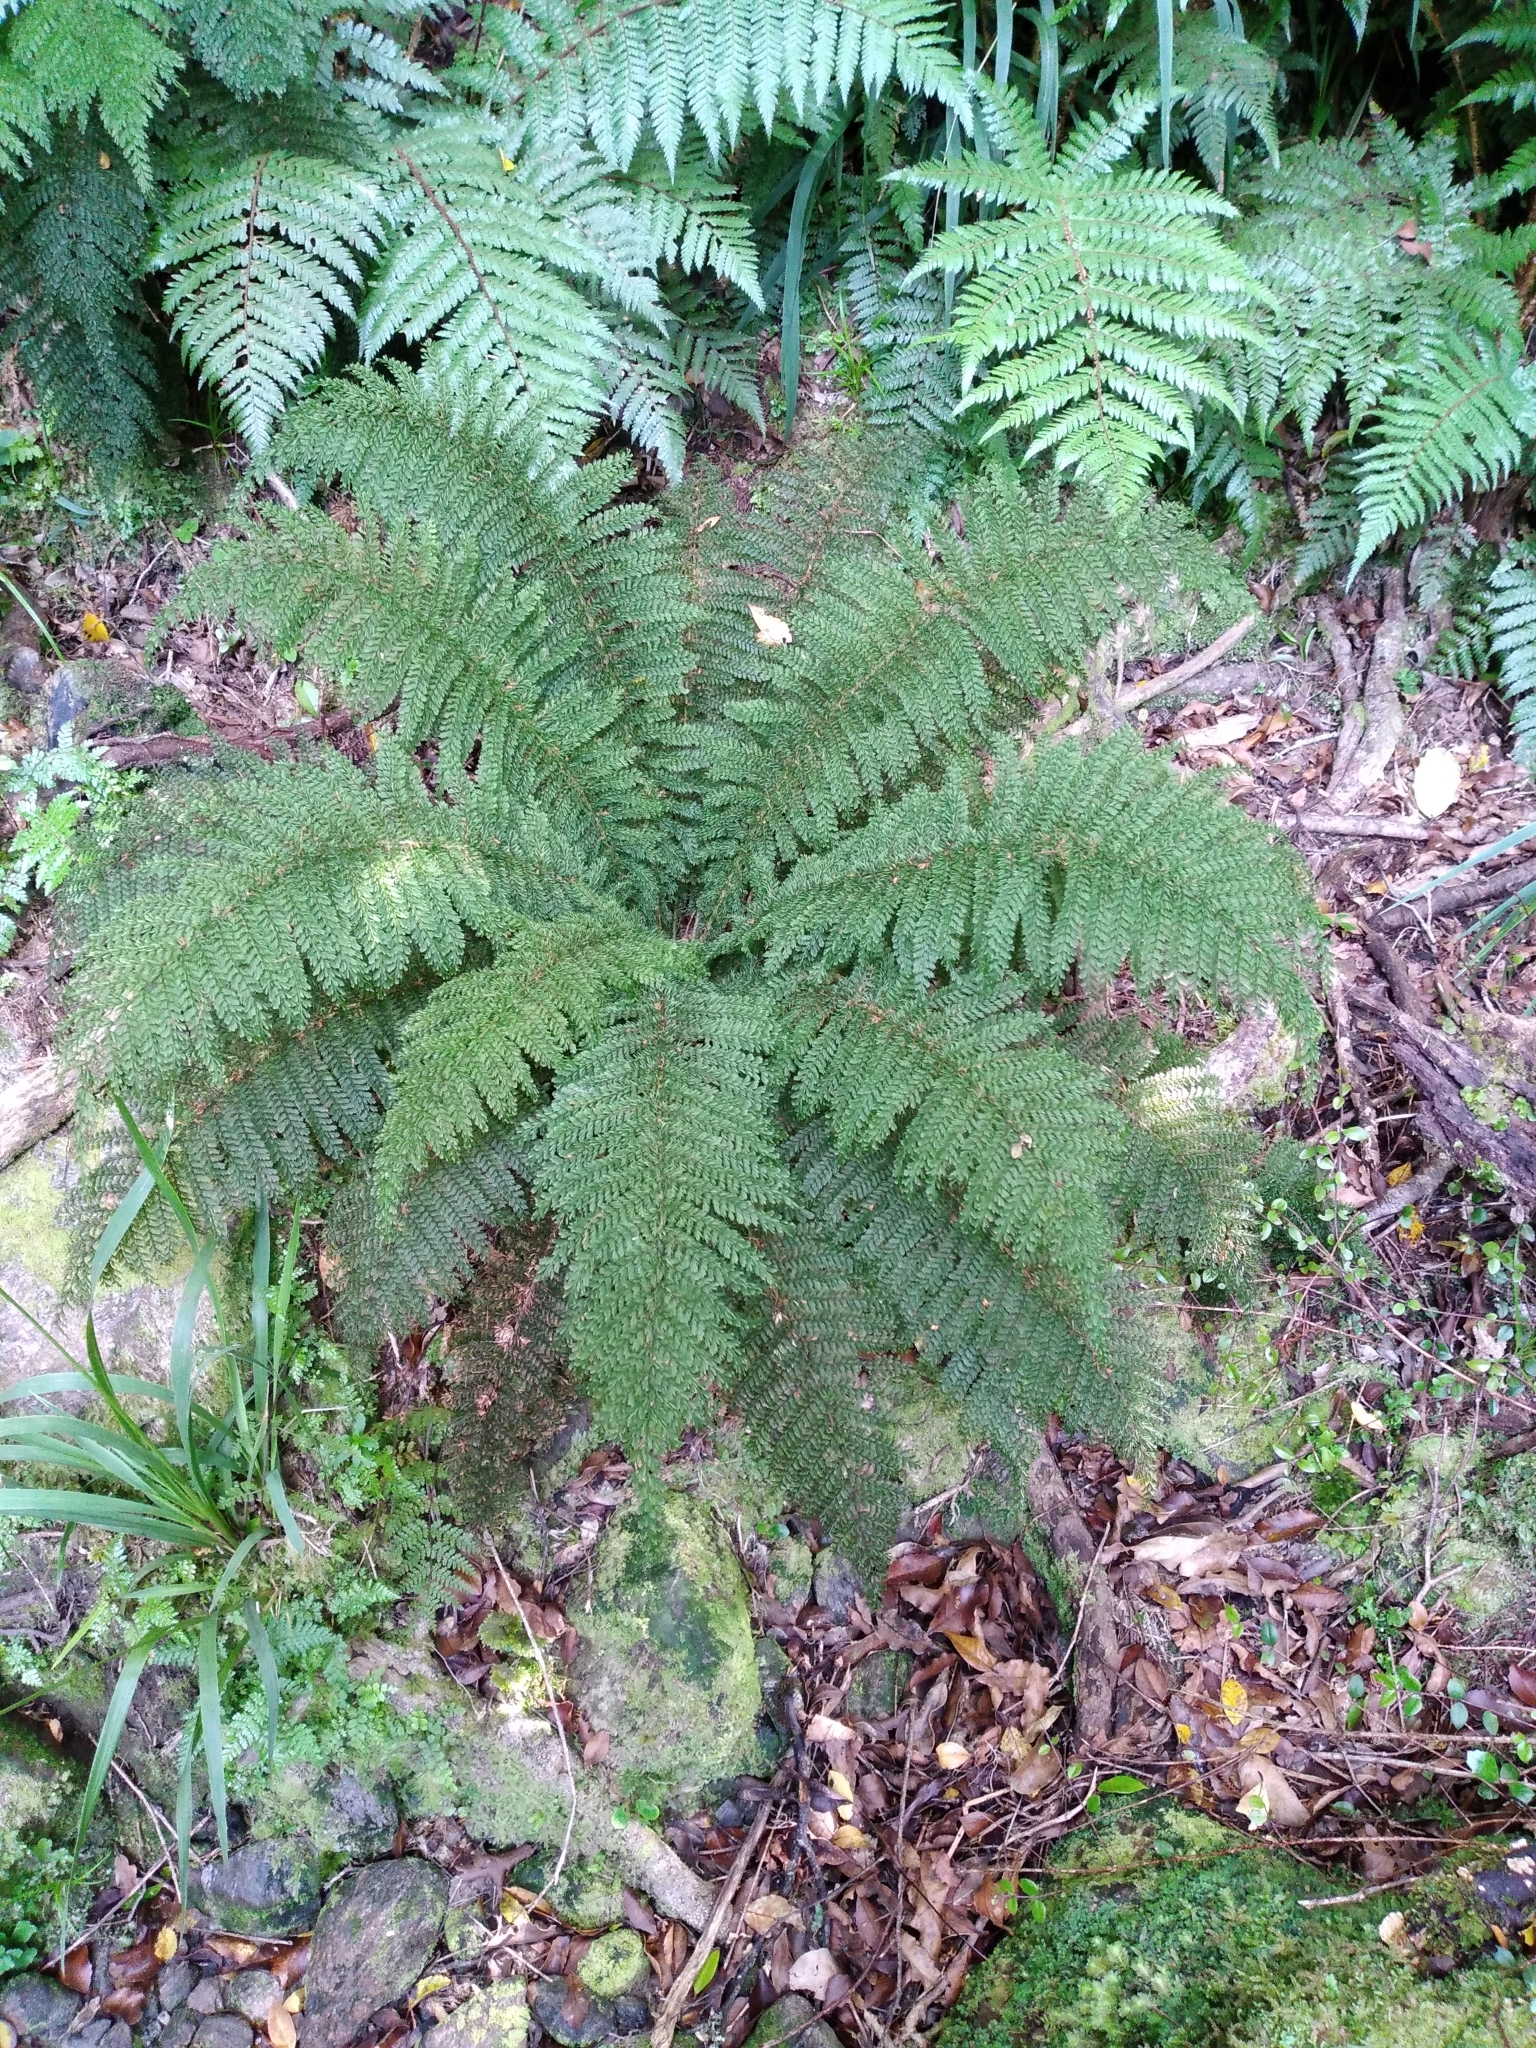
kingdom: Plantae
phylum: Tracheophyta
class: Polypodiopsida
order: Osmundales
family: Osmundaceae
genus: Leptopteris
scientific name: Leptopteris superba
